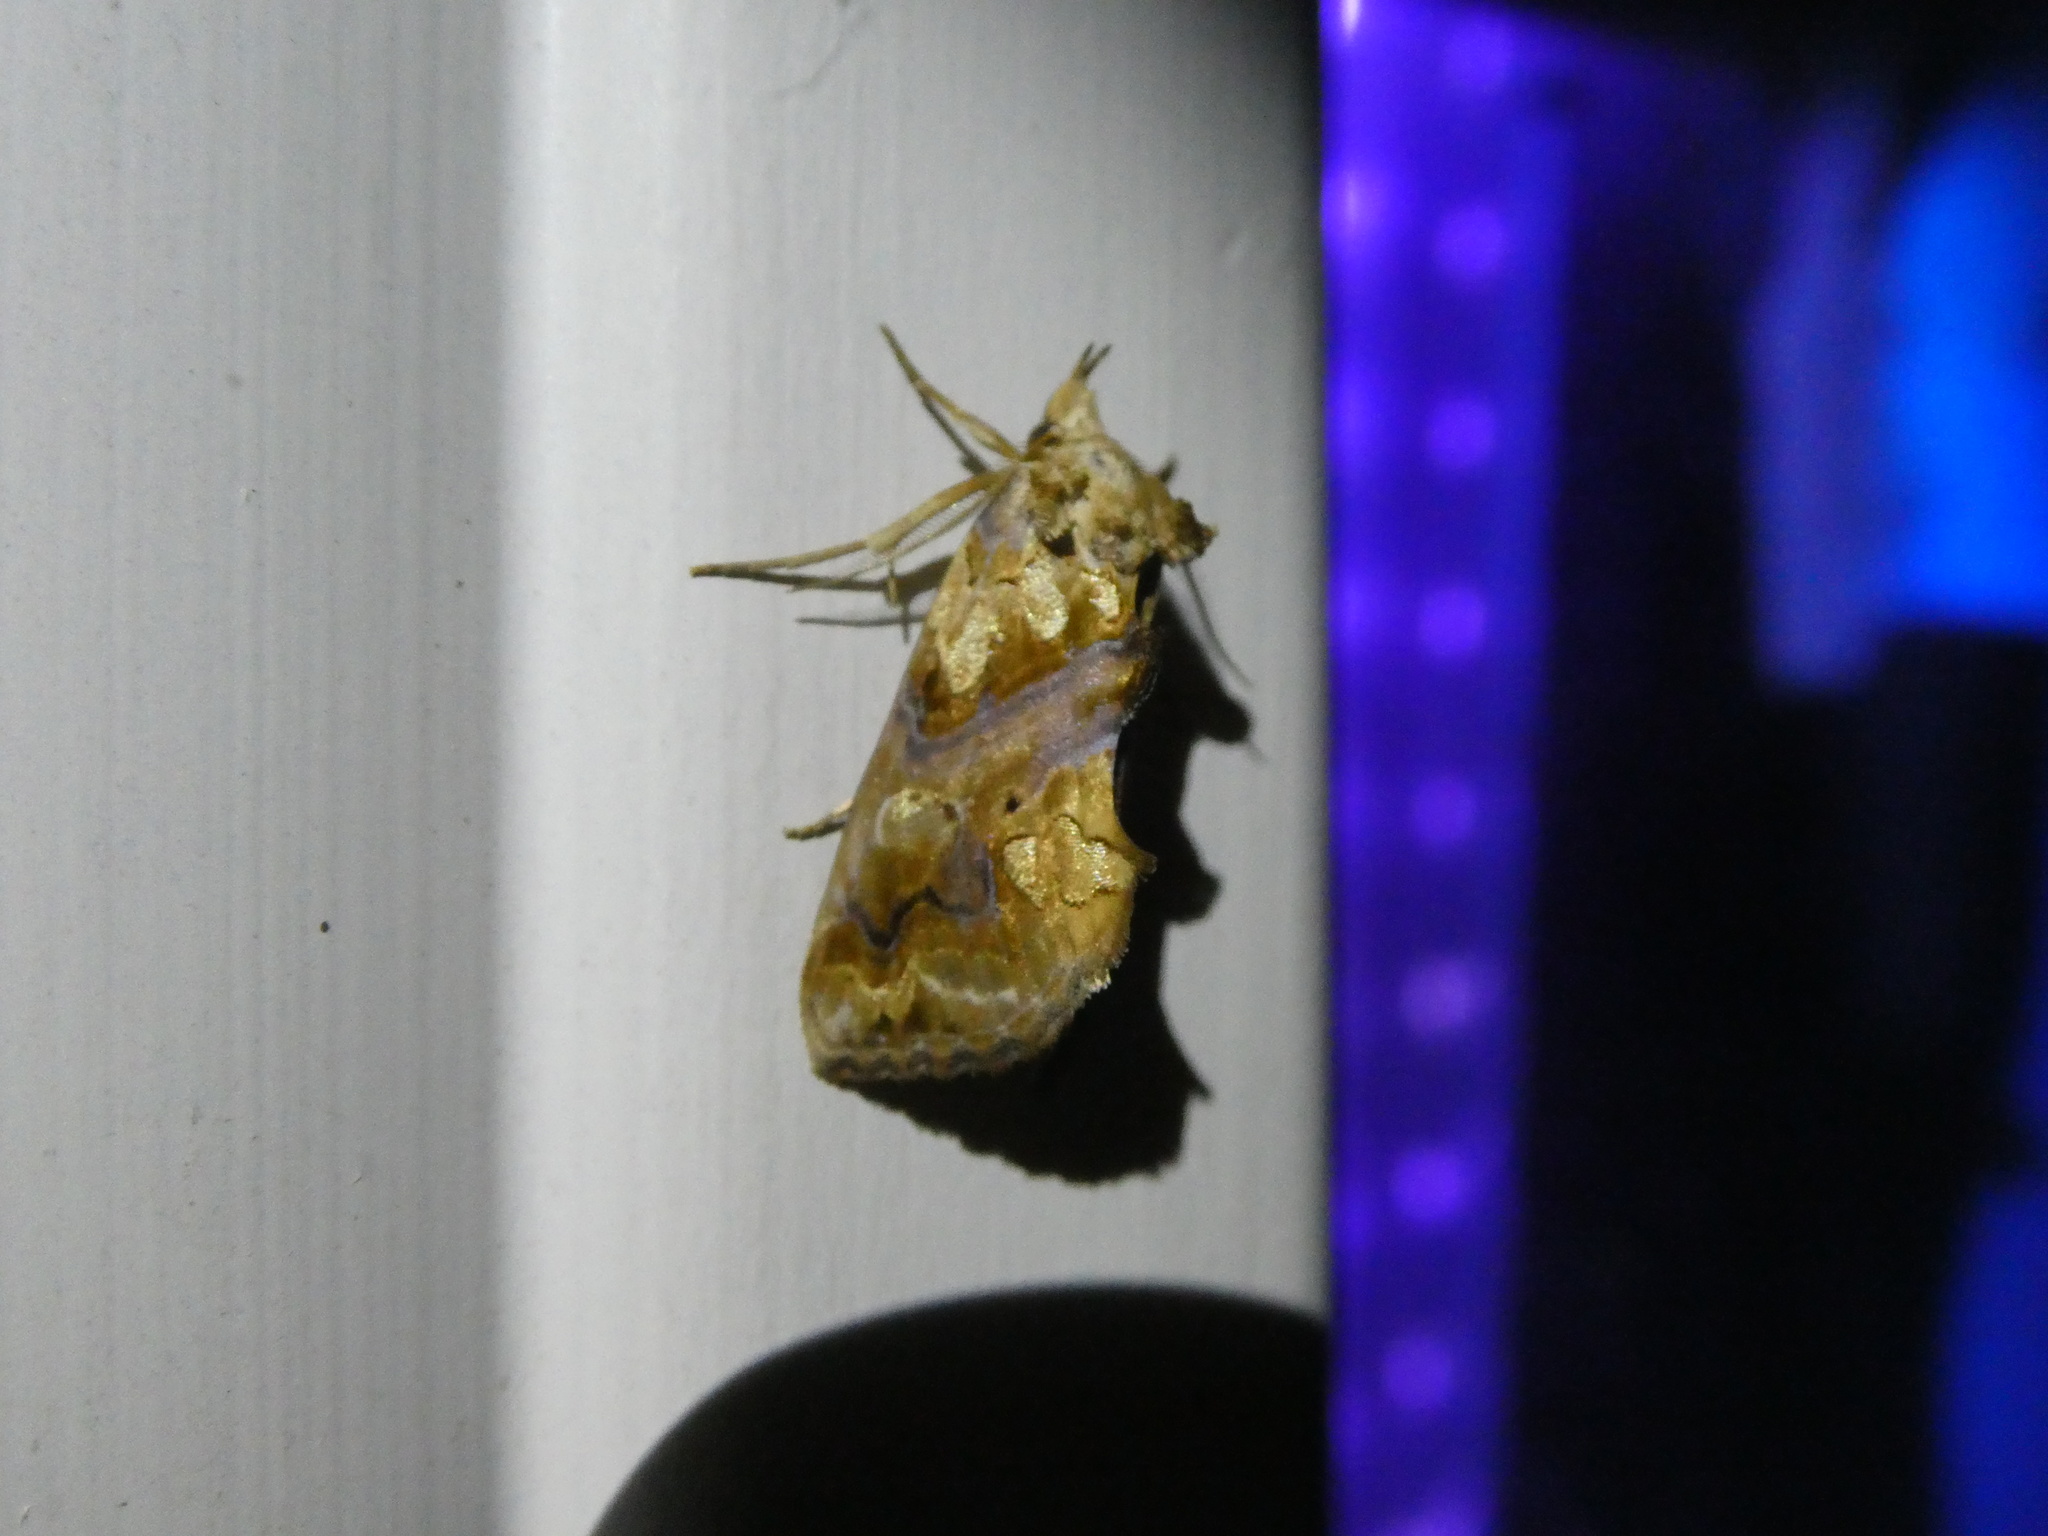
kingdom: Animalia
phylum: Arthropoda
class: Insecta
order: Lepidoptera
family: Erebidae
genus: Plusiodonta
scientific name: Plusiodonta compressipalpis
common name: Moonseed moth
